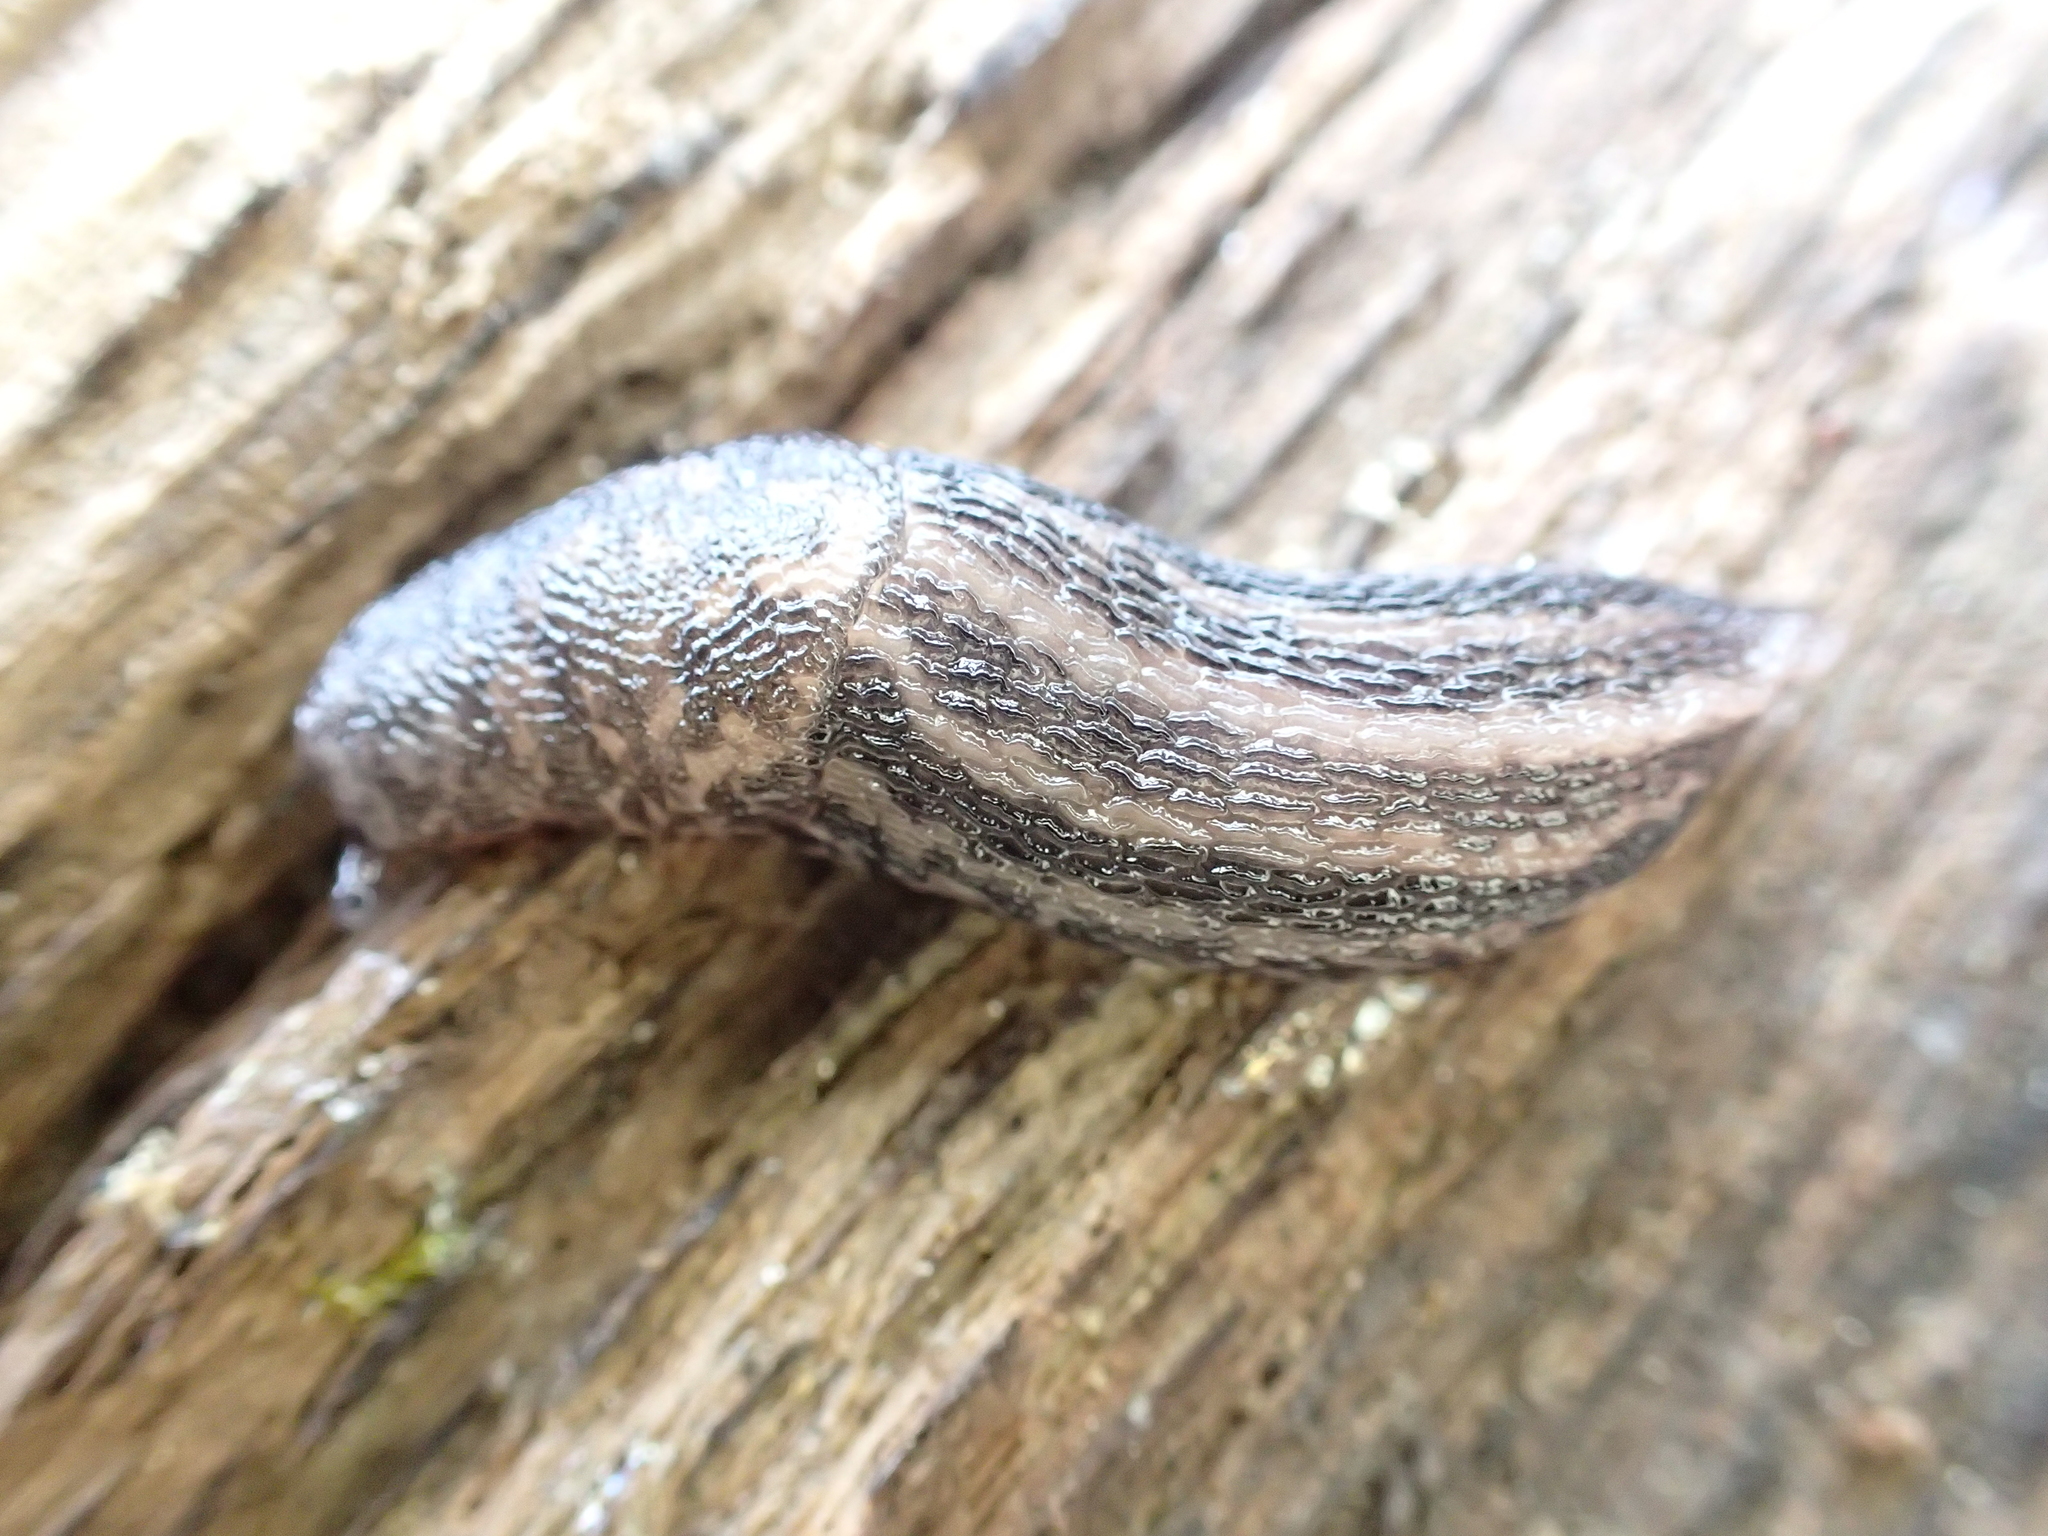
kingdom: Animalia
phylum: Mollusca
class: Gastropoda
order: Stylommatophora
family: Limacidae
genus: Limax
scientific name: Limax maximus
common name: Great grey slug
